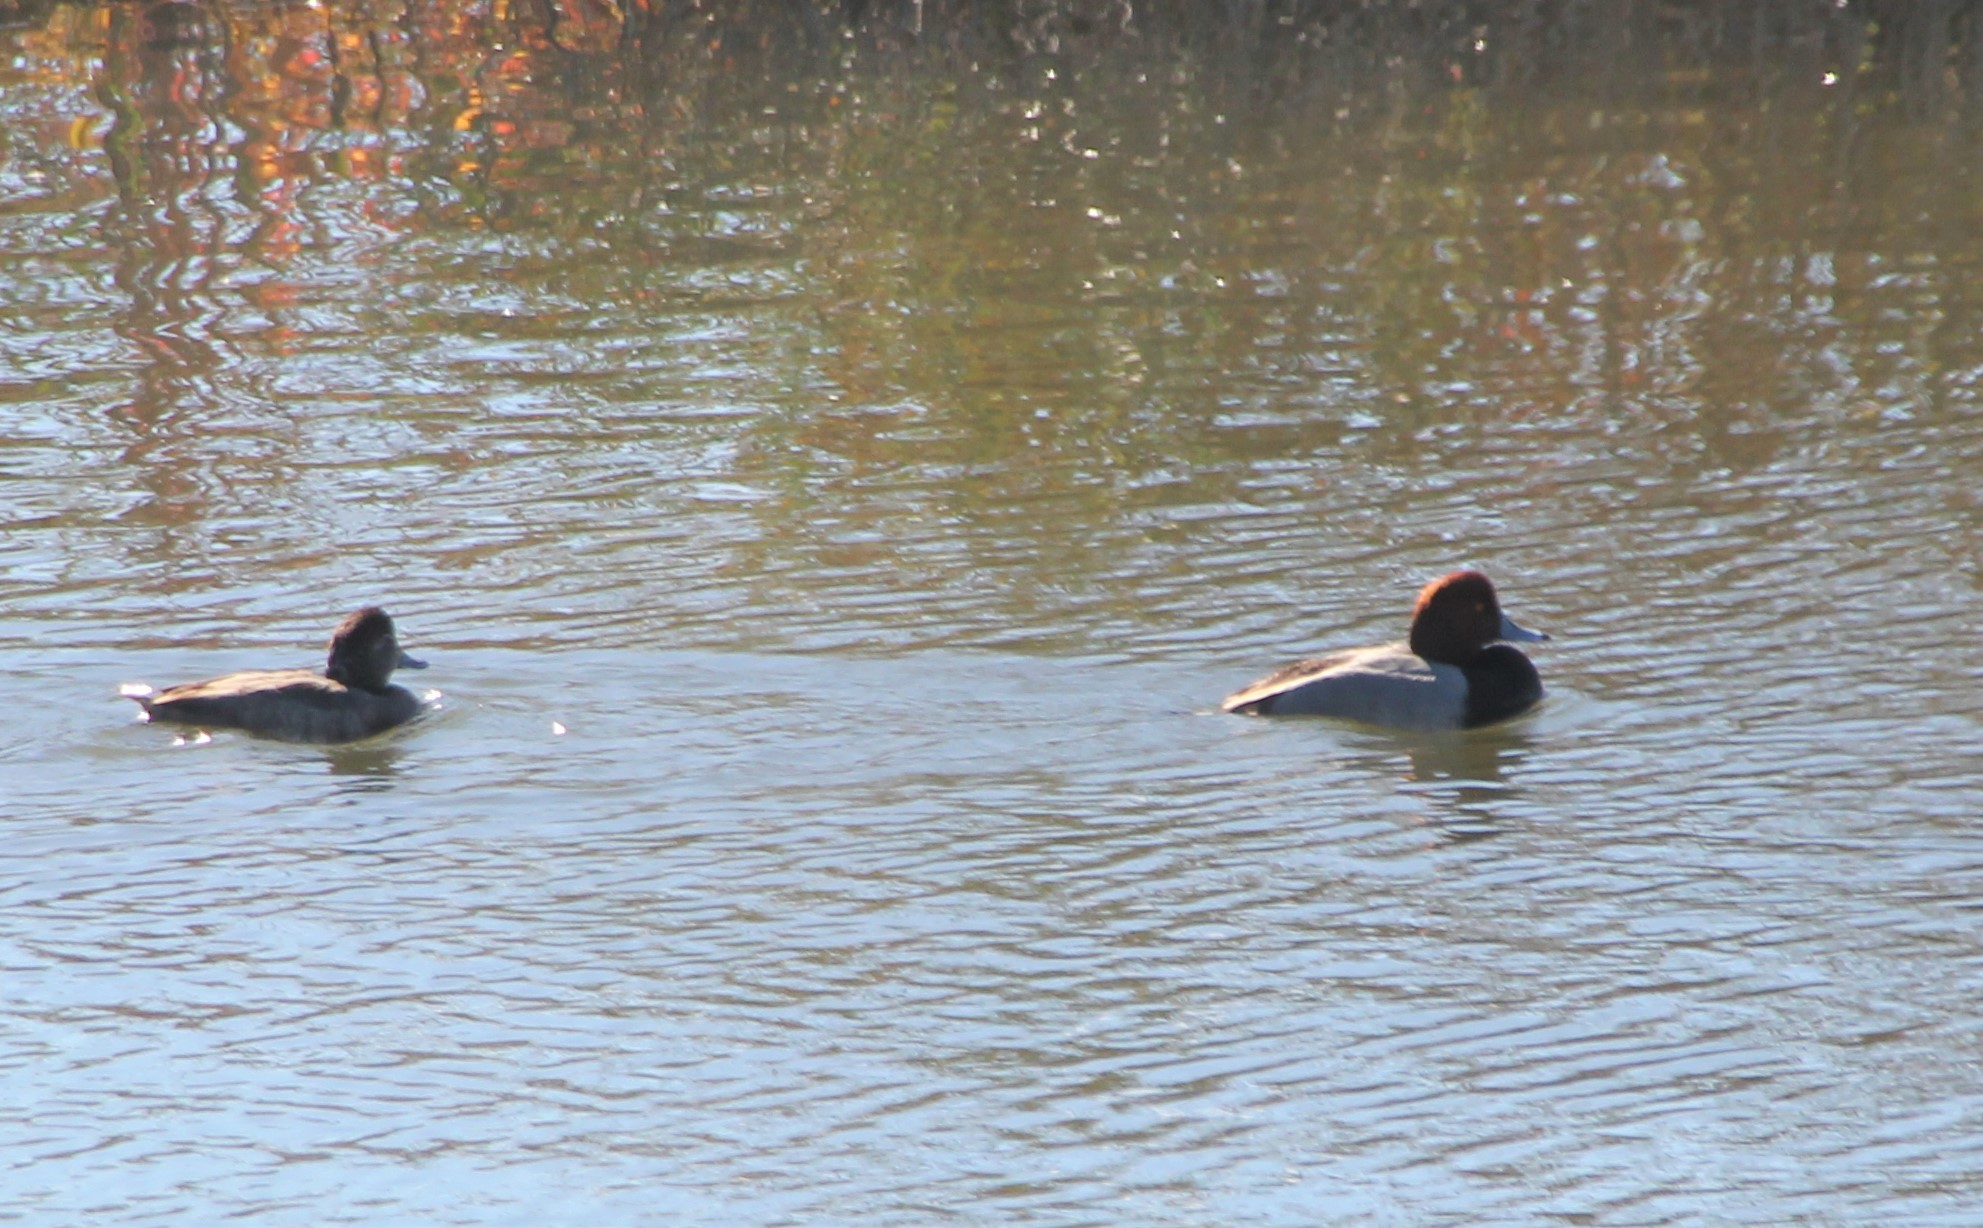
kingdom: Animalia
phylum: Chordata
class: Aves
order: Anseriformes
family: Anatidae
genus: Aythya
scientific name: Aythya americana
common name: Redhead
